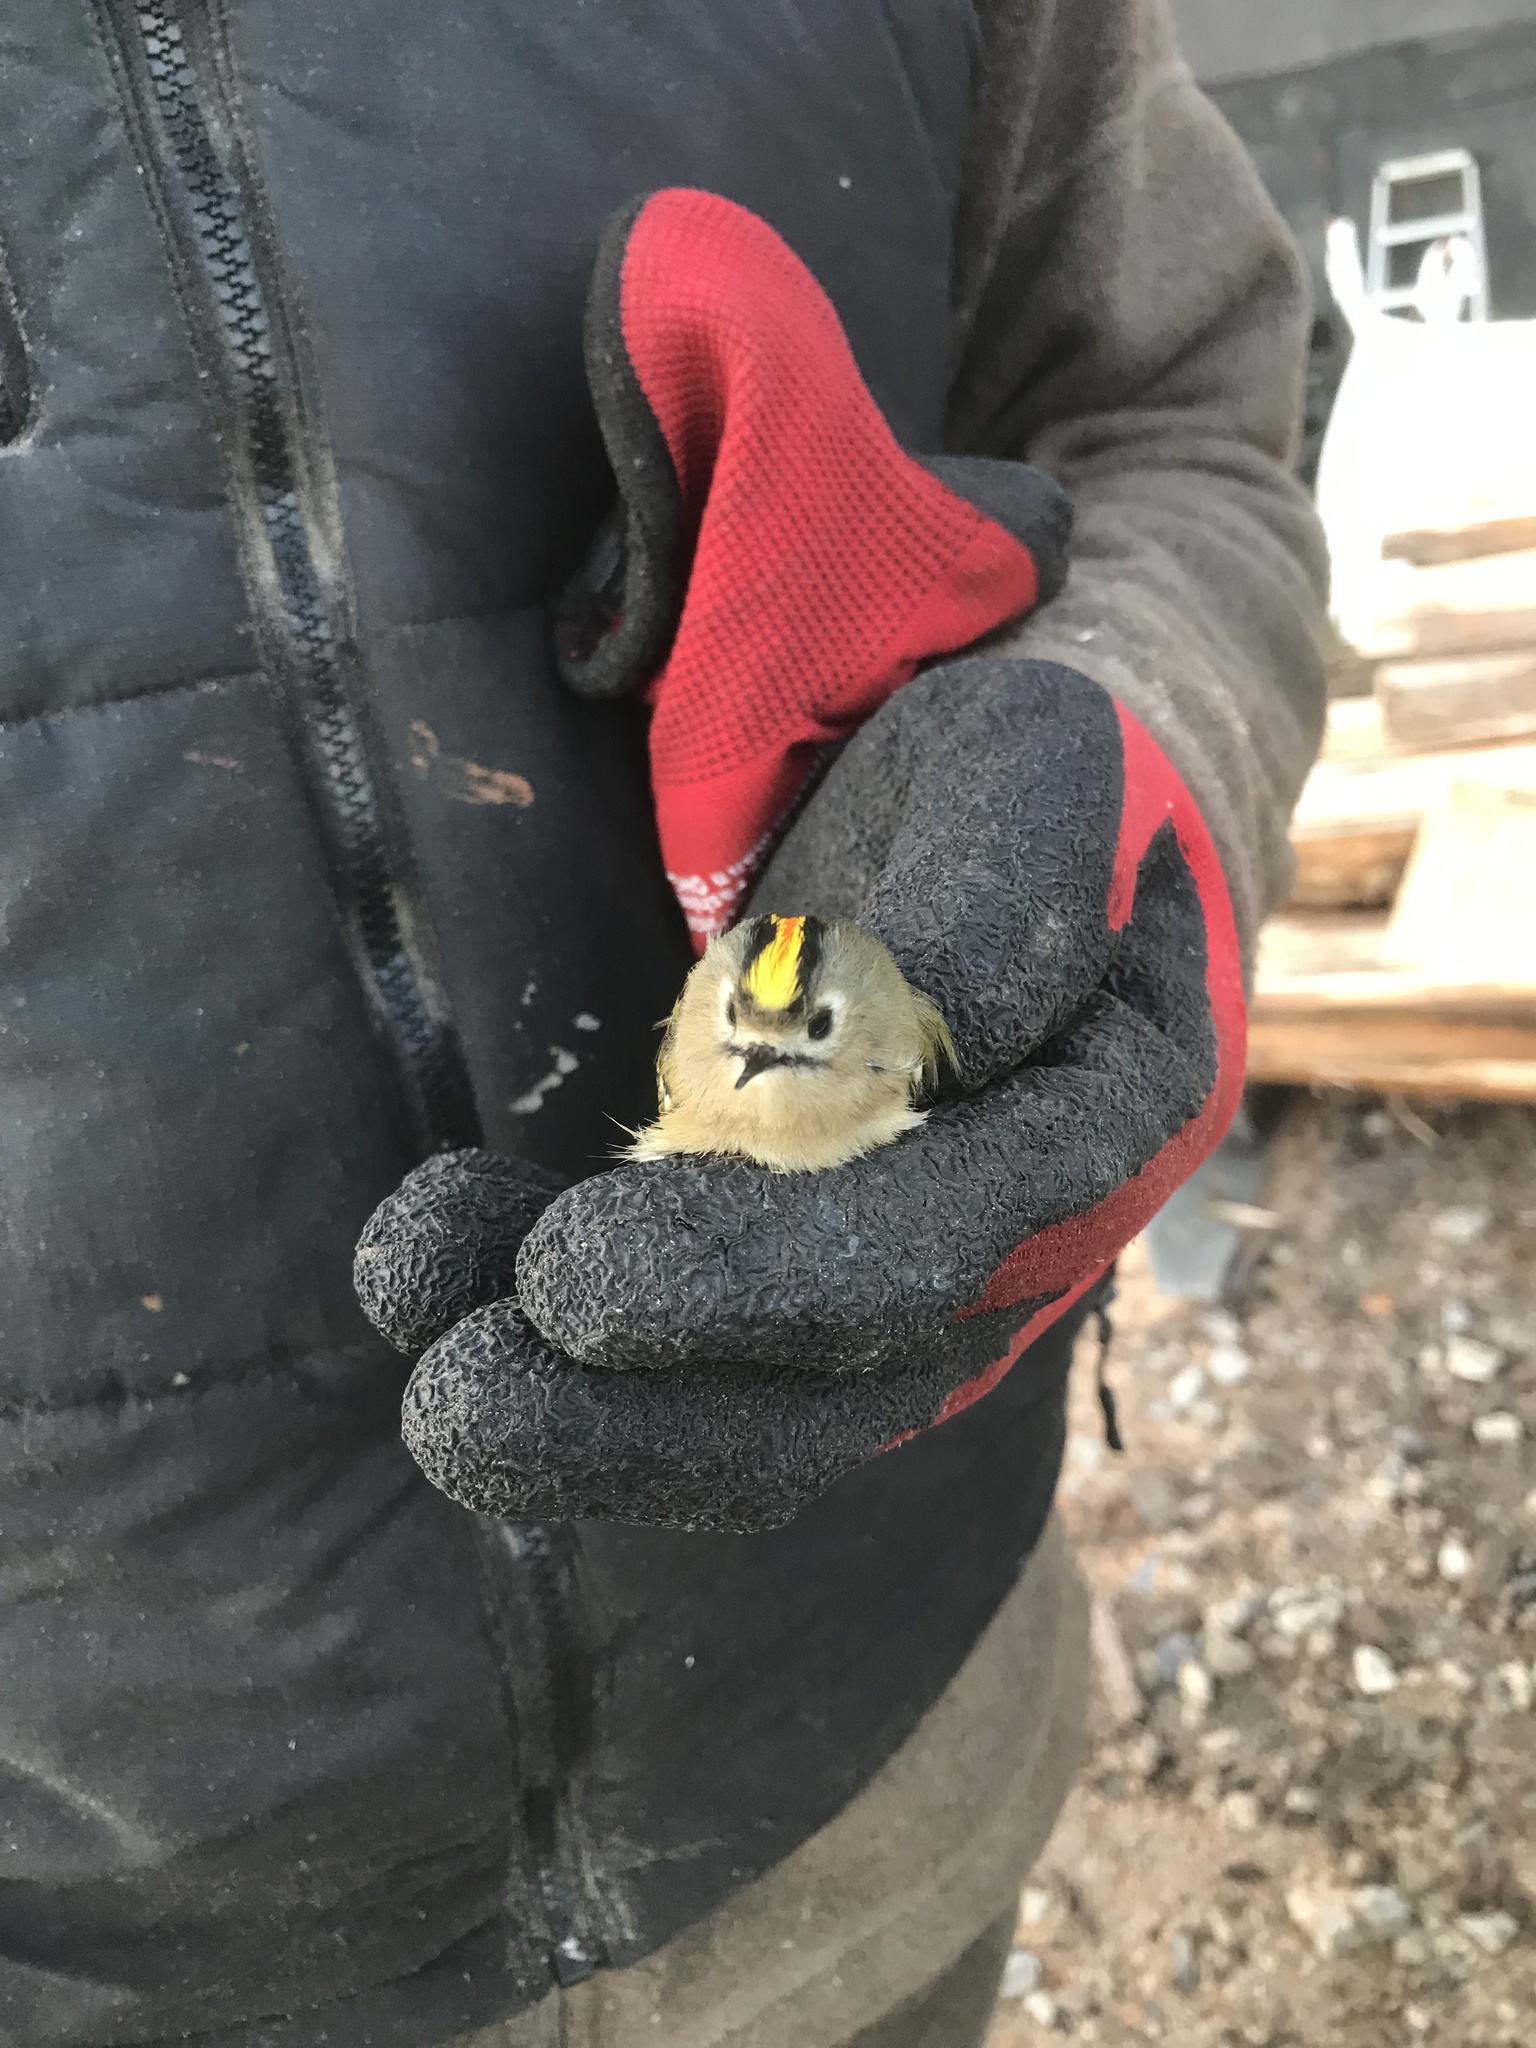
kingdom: Animalia
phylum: Chordata
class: Aves
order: Passeriformes
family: Regulidae
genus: Regulus
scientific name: Regulus regulus
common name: Goldcrest
